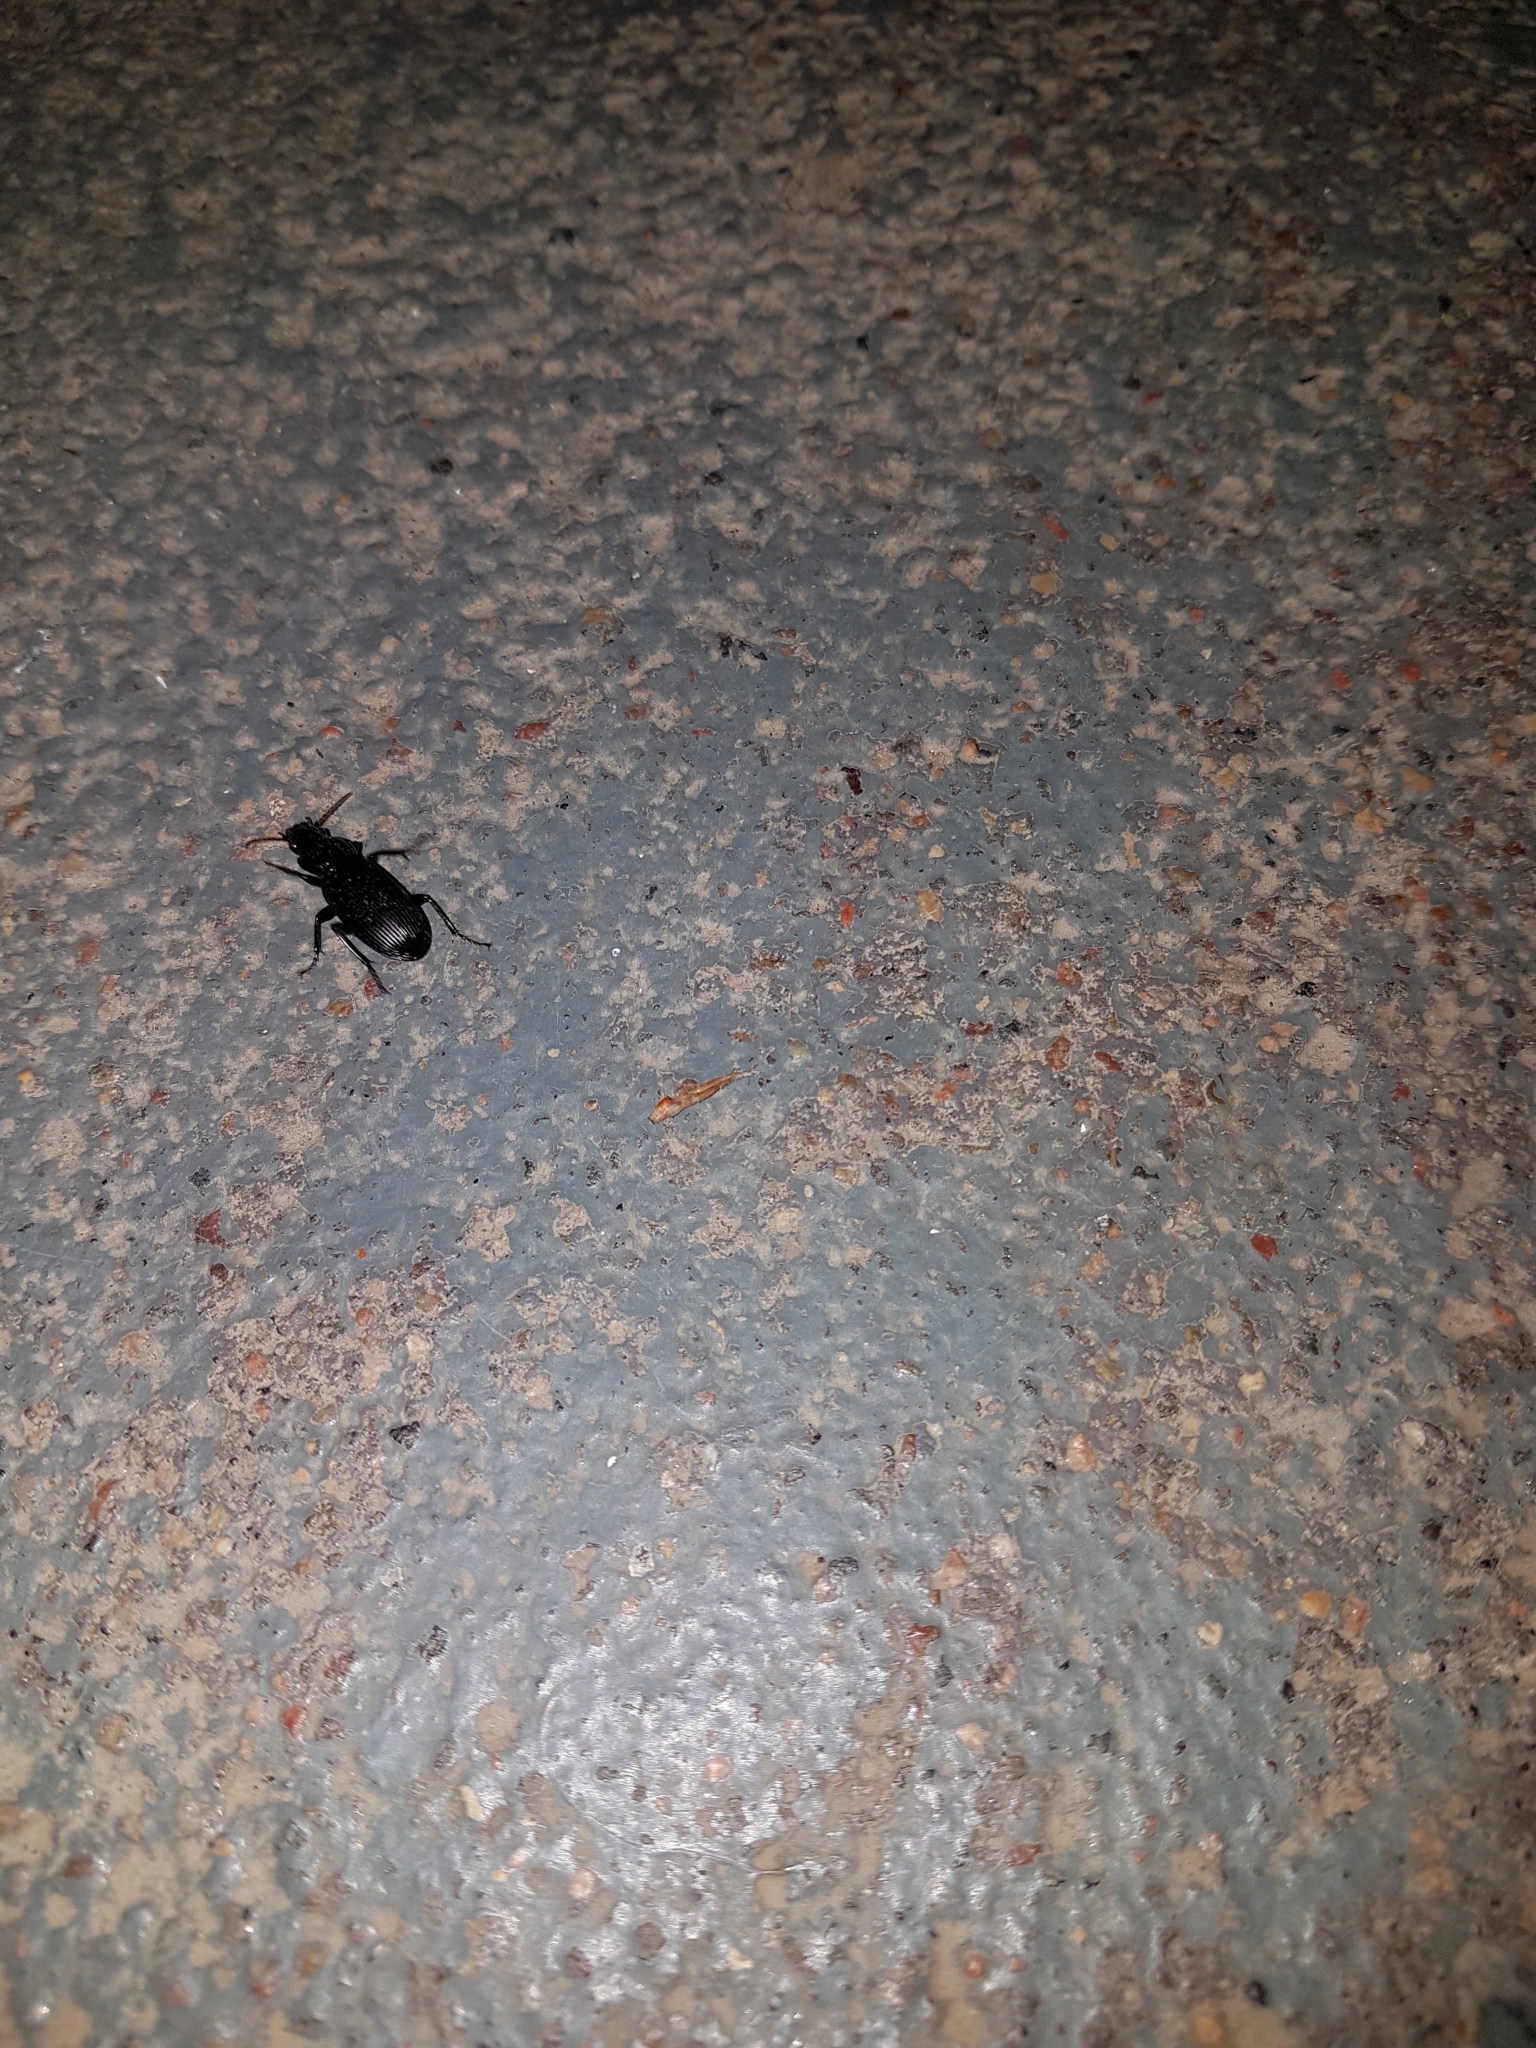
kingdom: Animalia
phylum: Arthropoda
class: Insecta
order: Coleoptera
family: Carabidae
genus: Pterostichus
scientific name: Pterostichus melanarius
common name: European dark harp ground beetle
